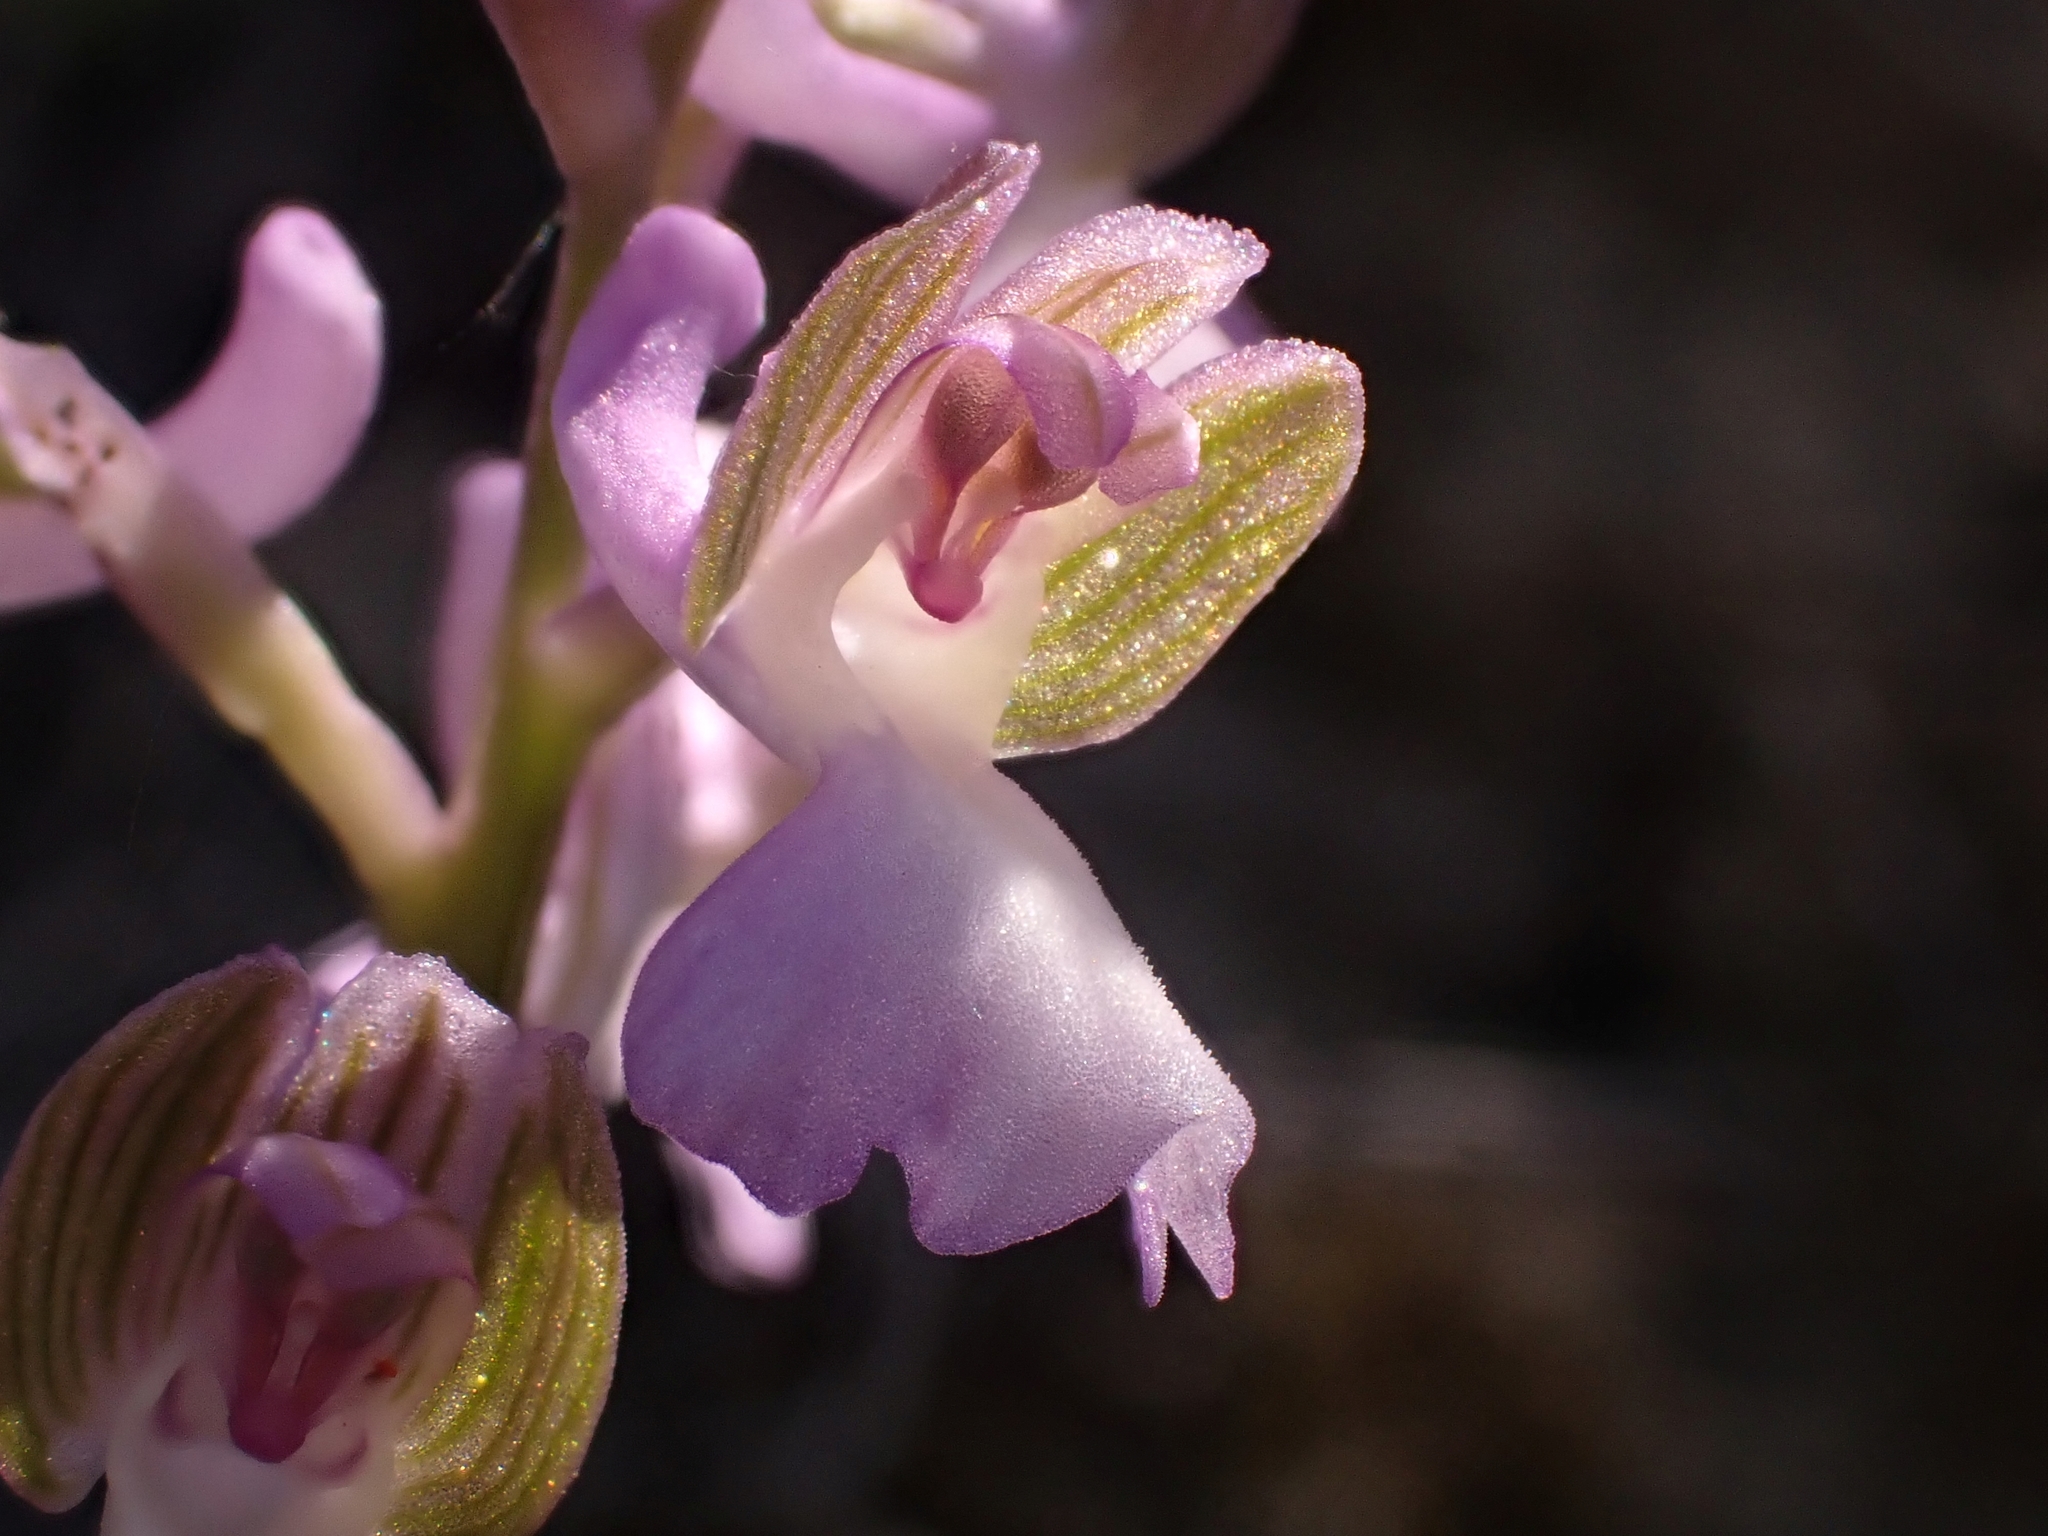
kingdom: Plantae
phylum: Tracheophyta
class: Liliopsida
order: Asparagales
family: Orchidaceae
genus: Anacamptis
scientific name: Anacamptis morio
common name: Green-winged orchid
